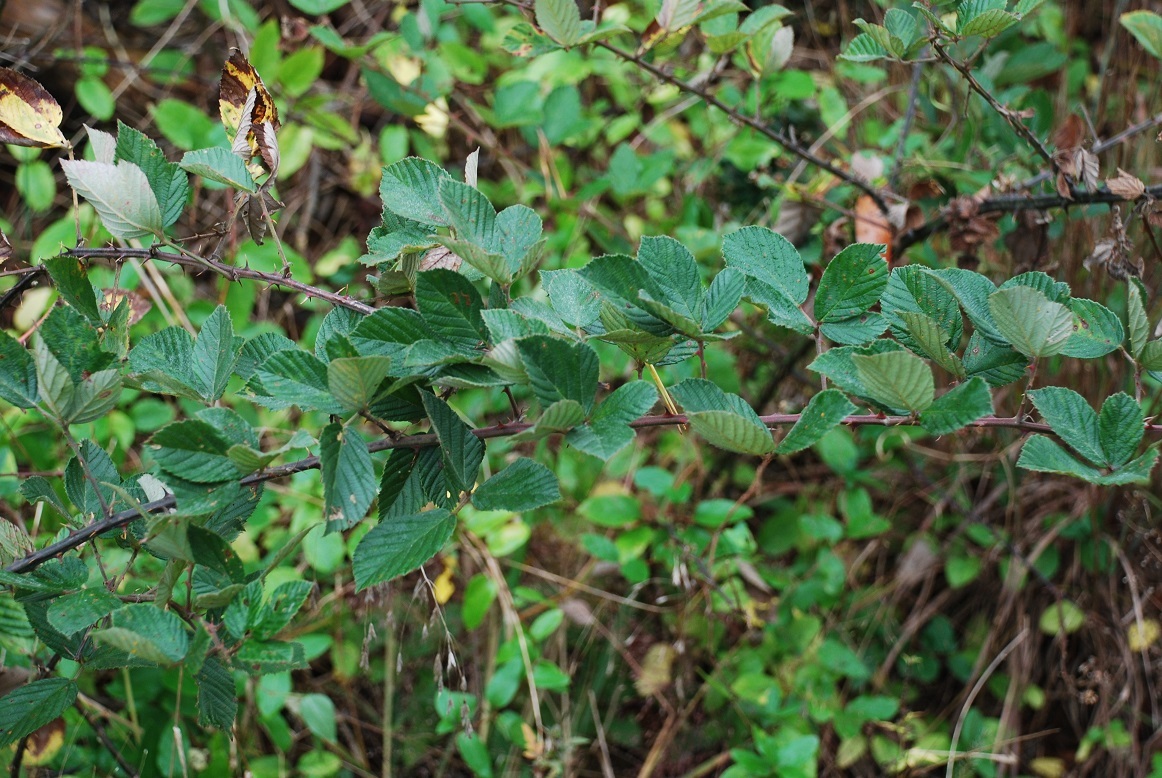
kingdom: Plantae
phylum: Tracheophyta
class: Magnoliopsida
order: Rosales
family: Rosaceae
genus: Rubus
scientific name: Rubus pascuus
